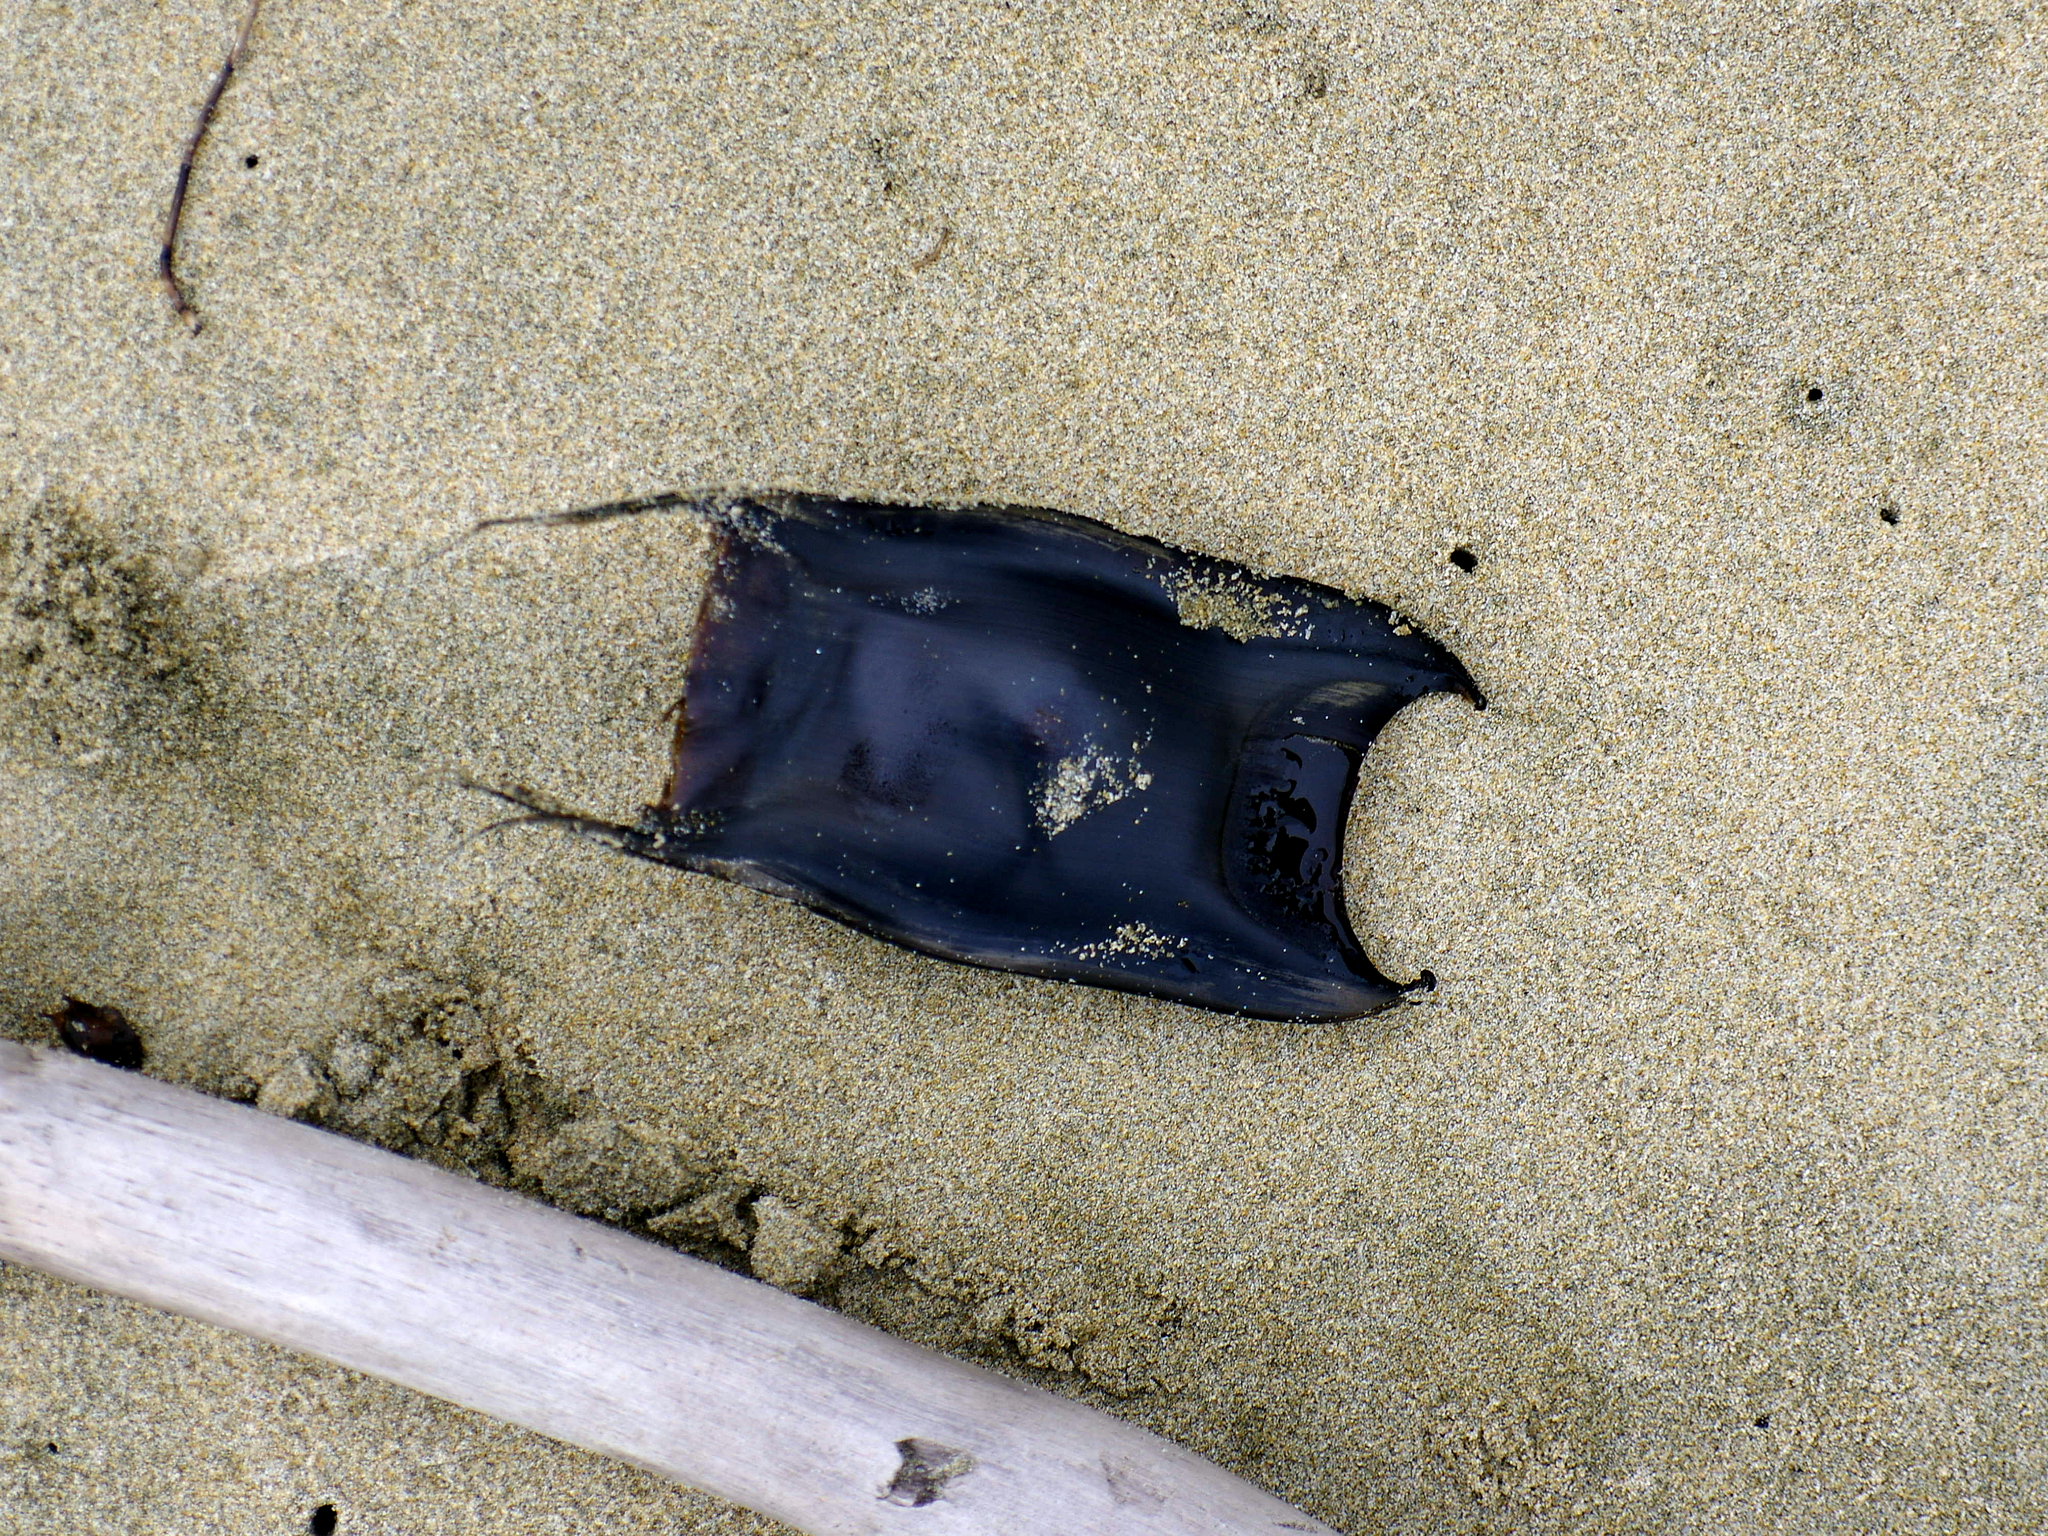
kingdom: Animalia
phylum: Chordata
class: Elasmobranchii
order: Rajiformes
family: Rajidae
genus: Zearaja
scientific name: Zearaja nasuta
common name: New zealand rough skate
